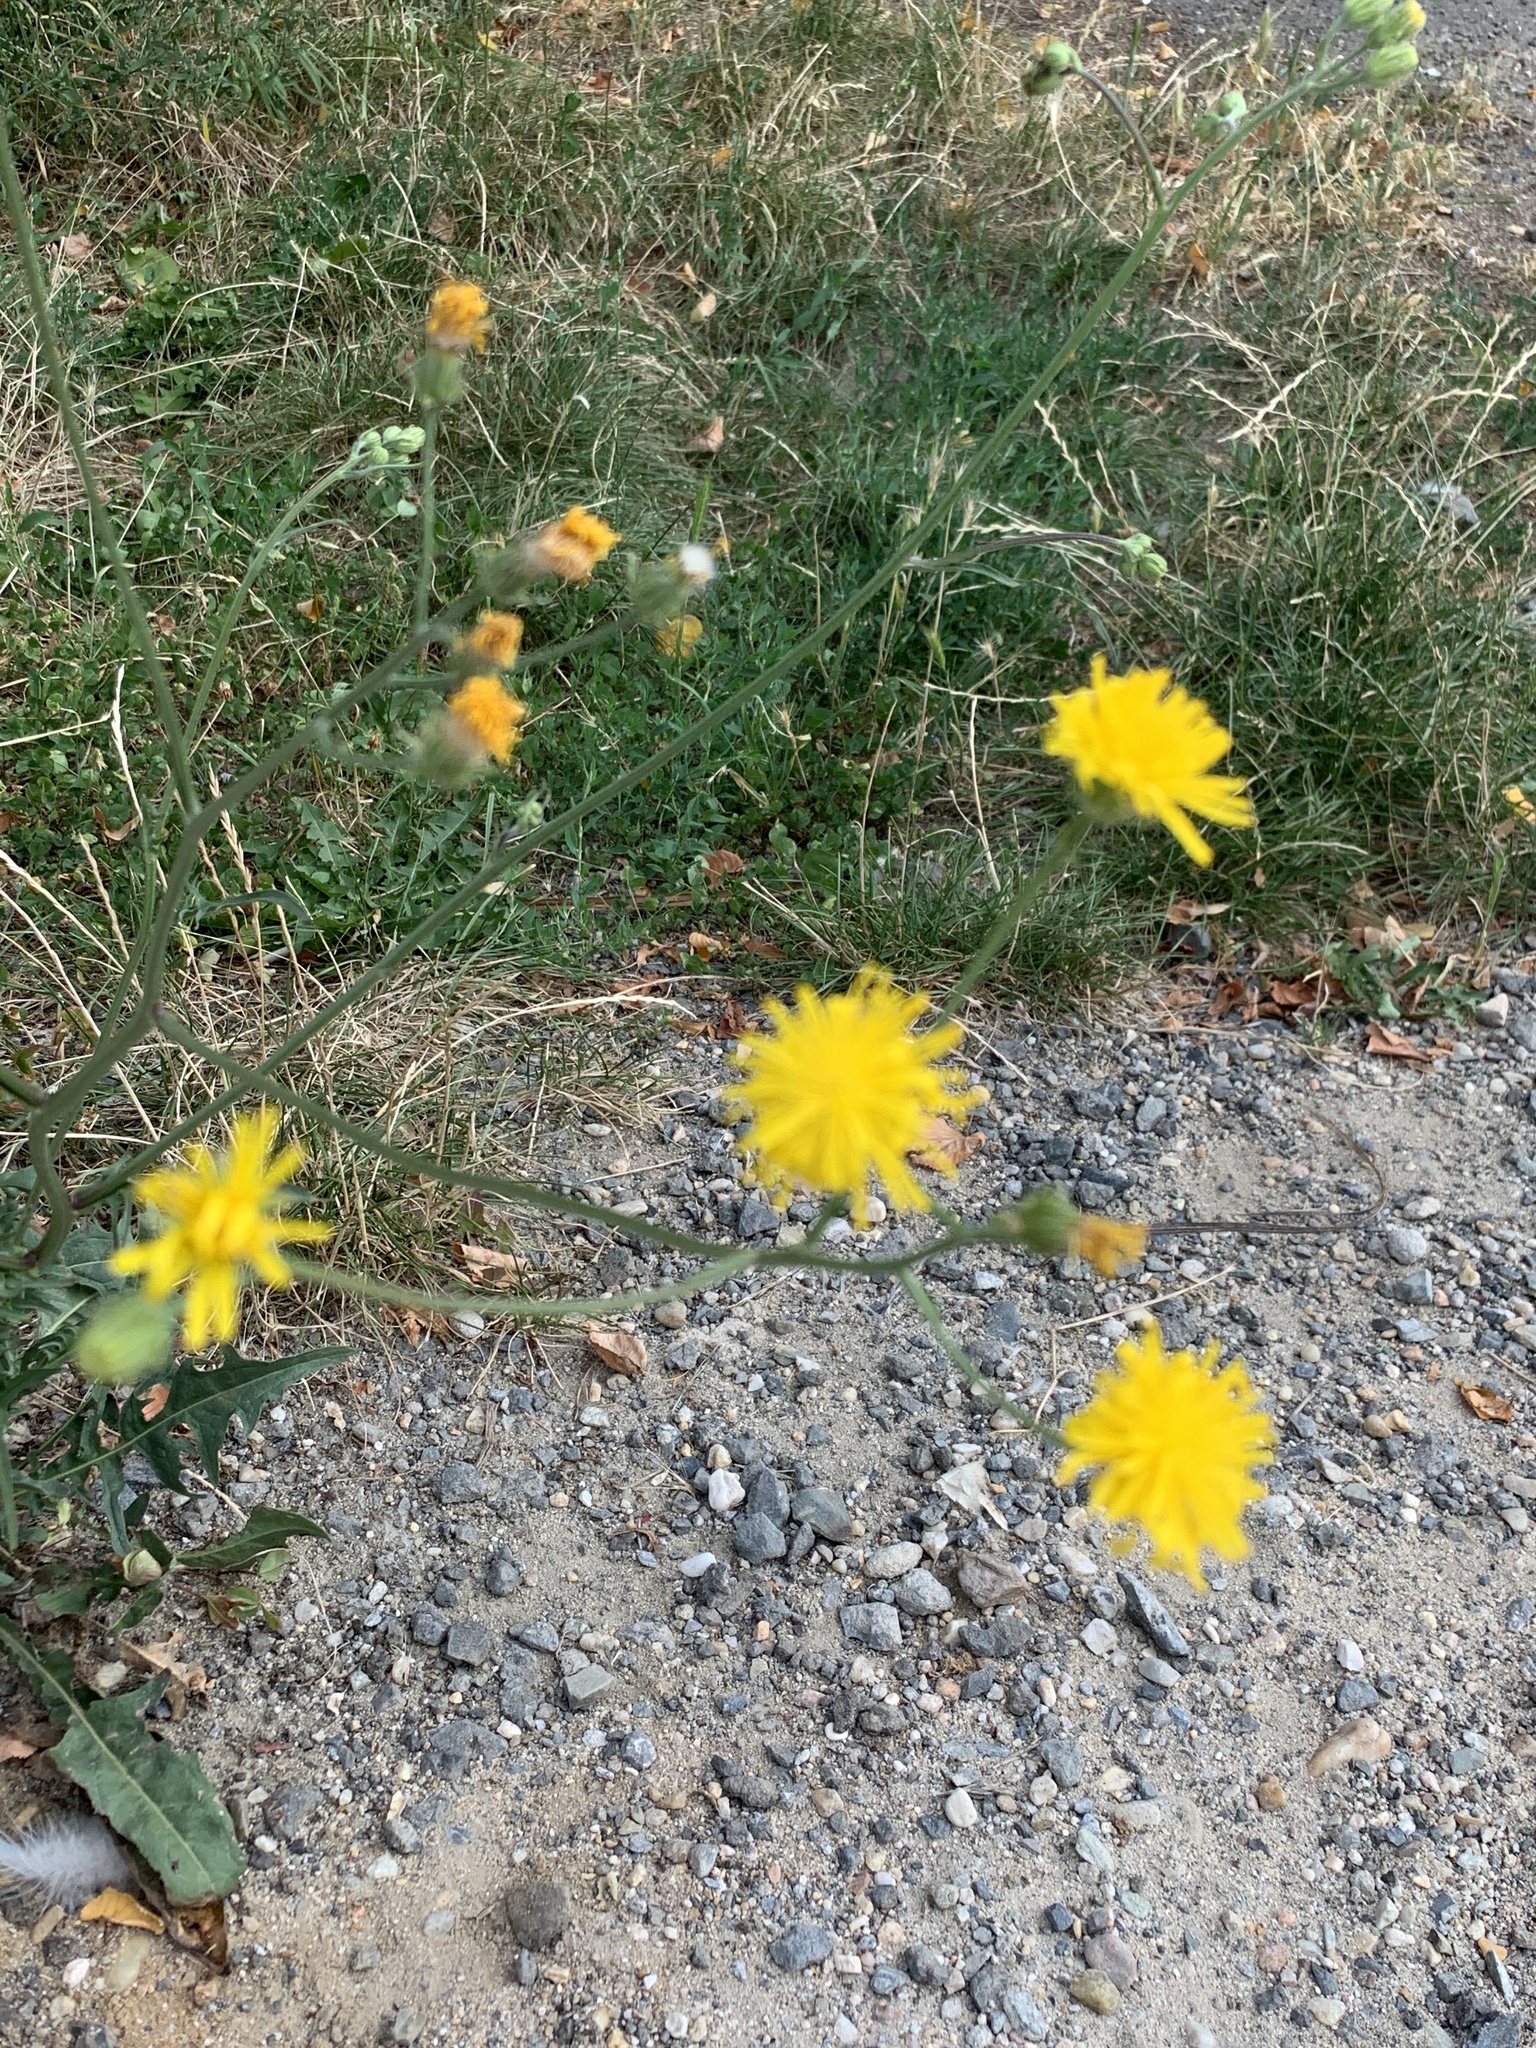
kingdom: Plantae
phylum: Tracheophyta
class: Magnoliopsida
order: Asterales
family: Asteraceae
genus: Crepis
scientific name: Crepis biennis
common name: Rough hawk's-beard
